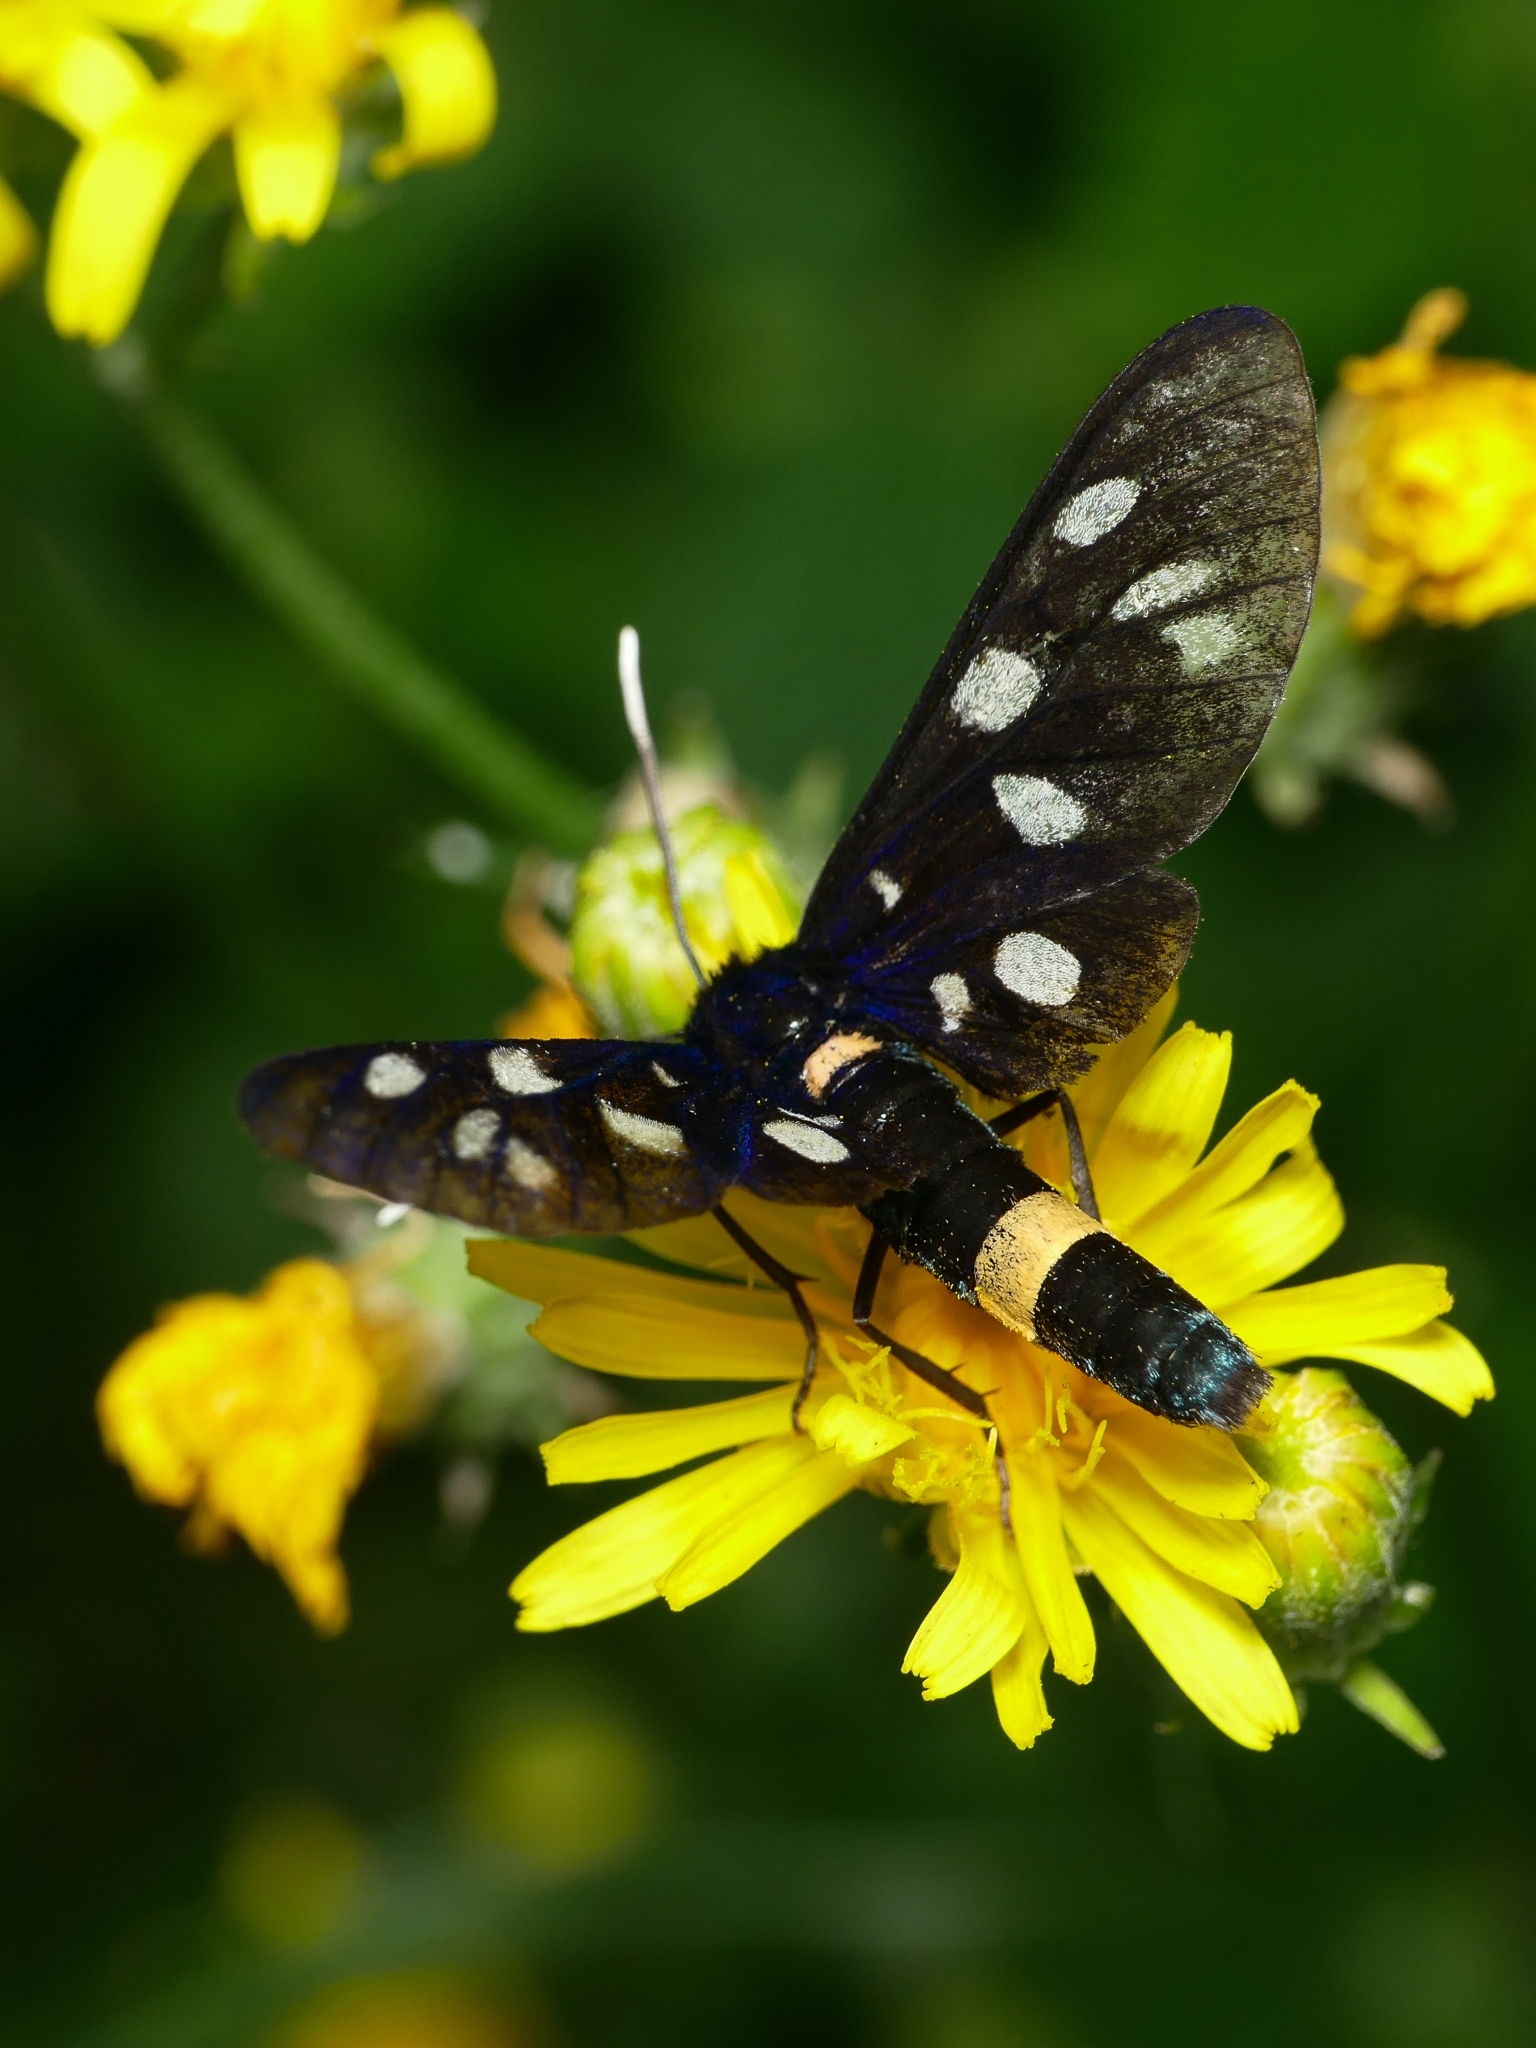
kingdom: Animalia
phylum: Arthropoda
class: Insecta
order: Lepidoptera
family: Erebidae
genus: Amata
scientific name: Amata phegea
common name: Nine-spotted
